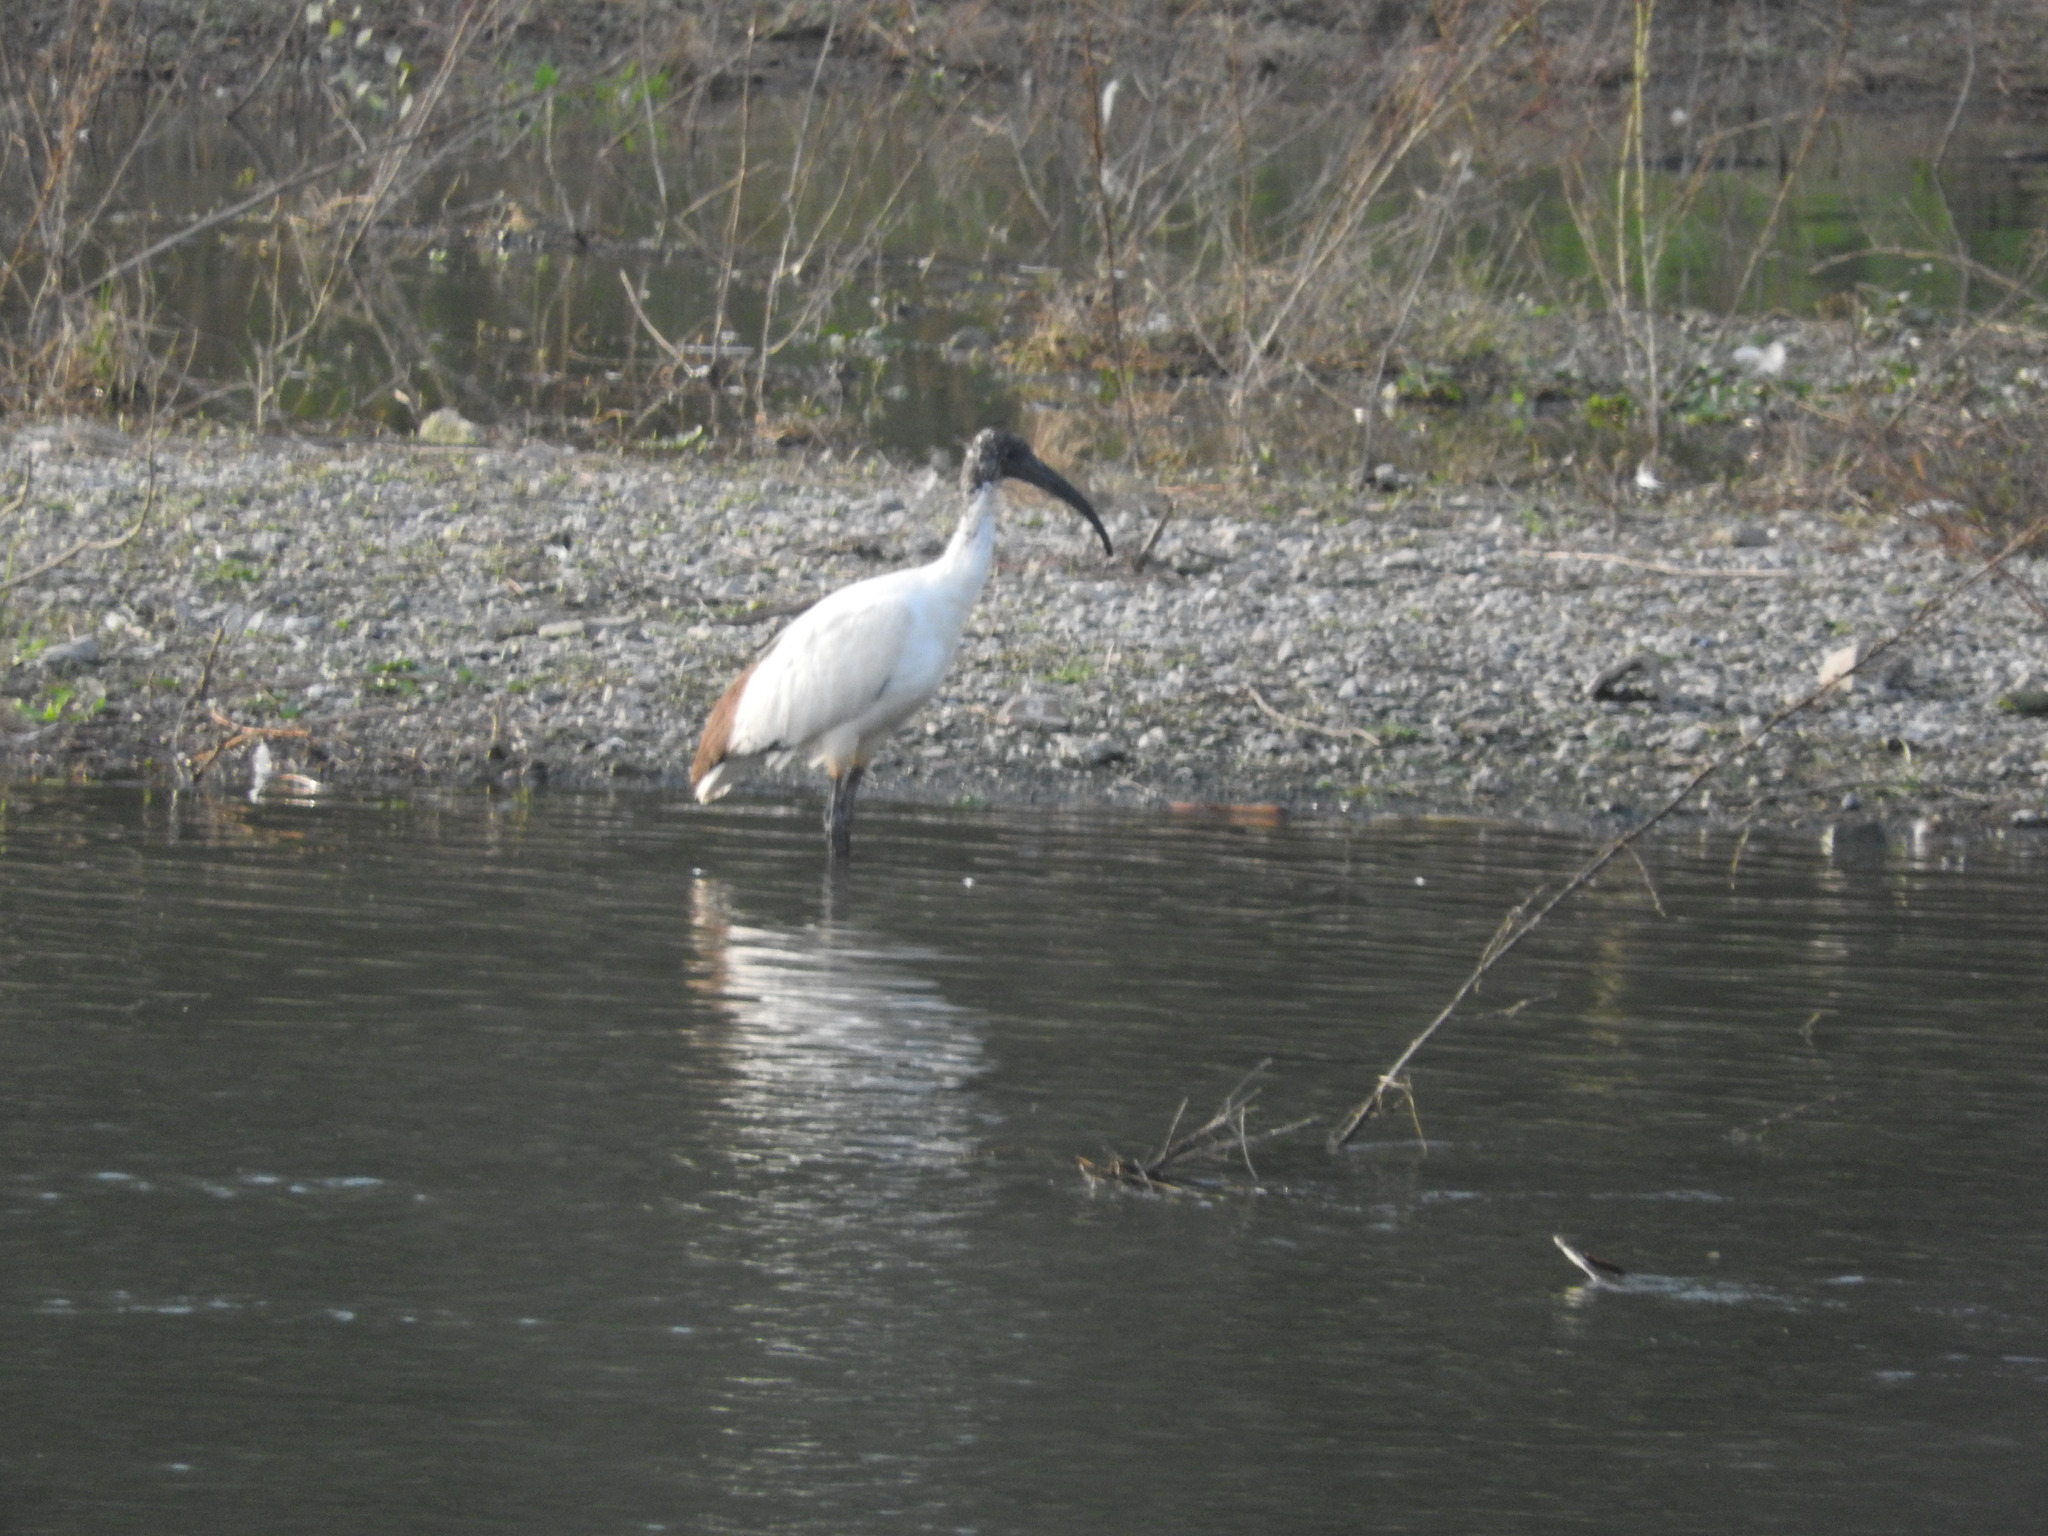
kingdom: Animalia
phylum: Chordata
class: Aves
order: Pelecaniformes
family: Threskiornithidae
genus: Threskiornis
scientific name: Threskiornis aethiopicus
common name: Sacred ibis
